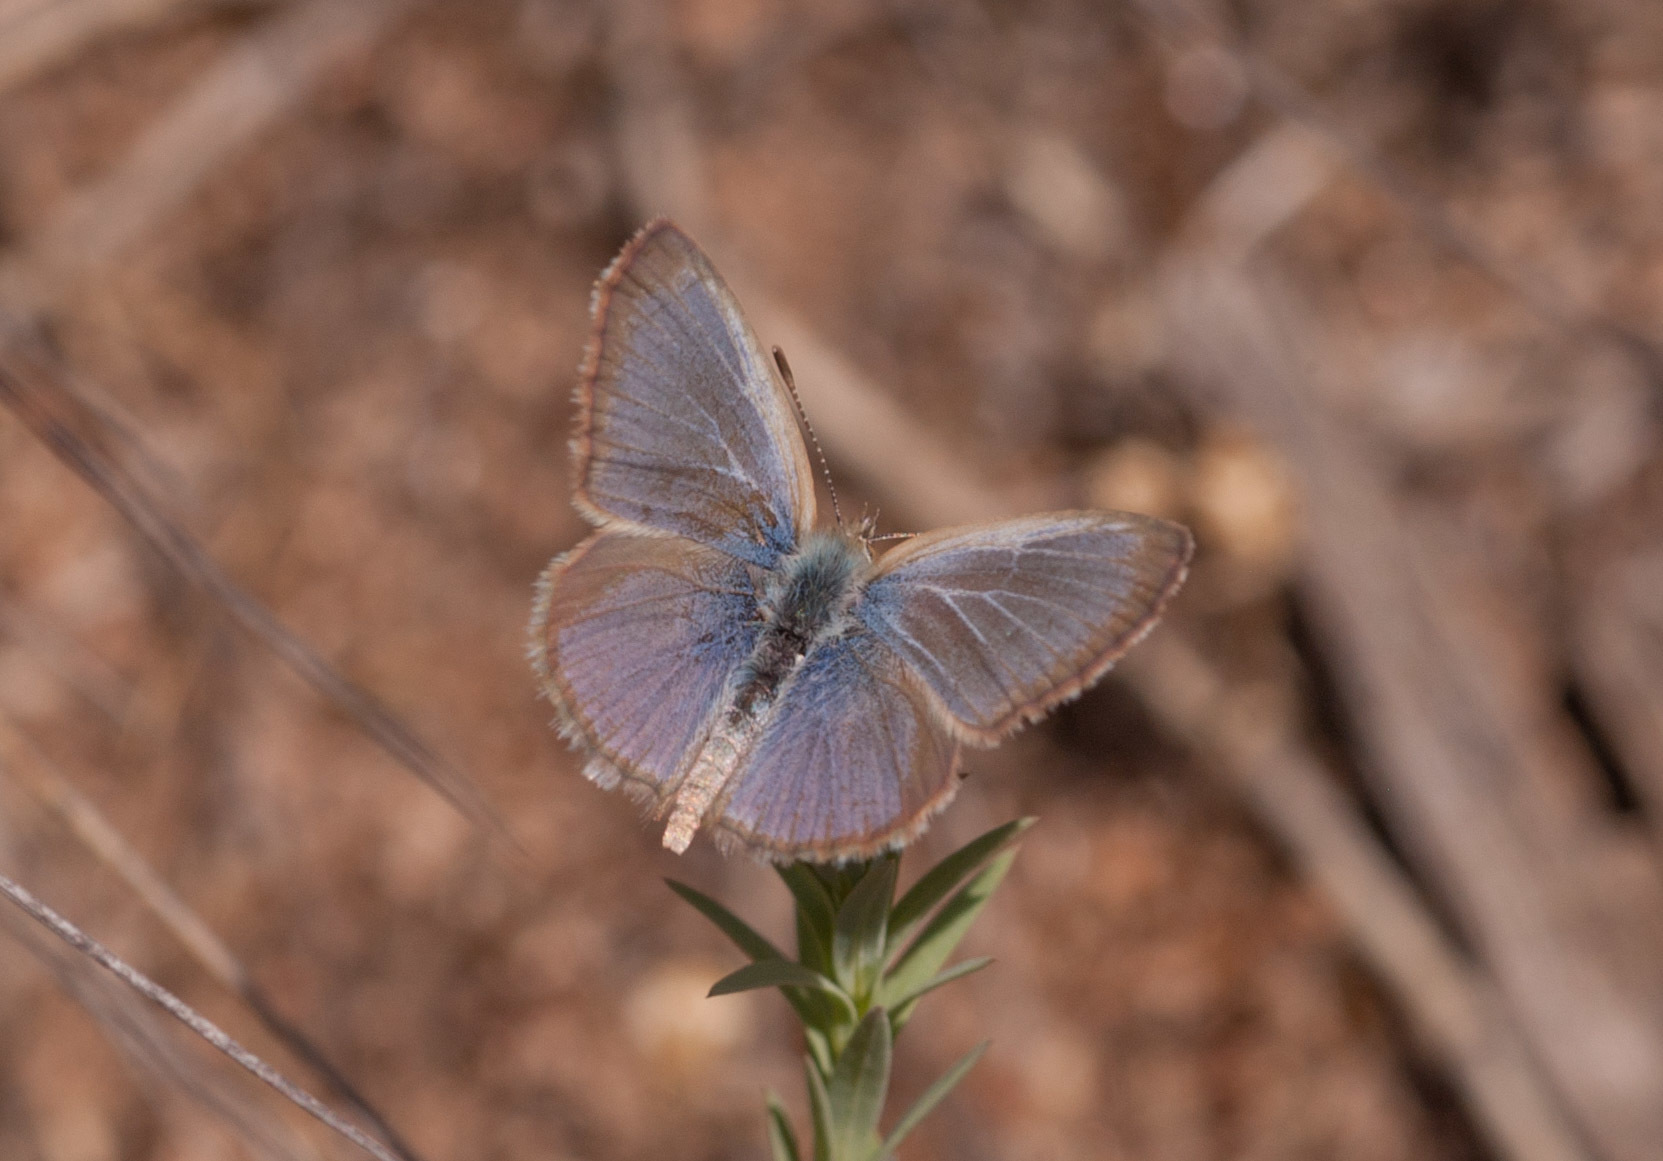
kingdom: Animalia
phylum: Arthropoda
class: Insecta
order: Lepidoptera
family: Lycaenidae
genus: Zizina
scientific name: Zizina labradus
